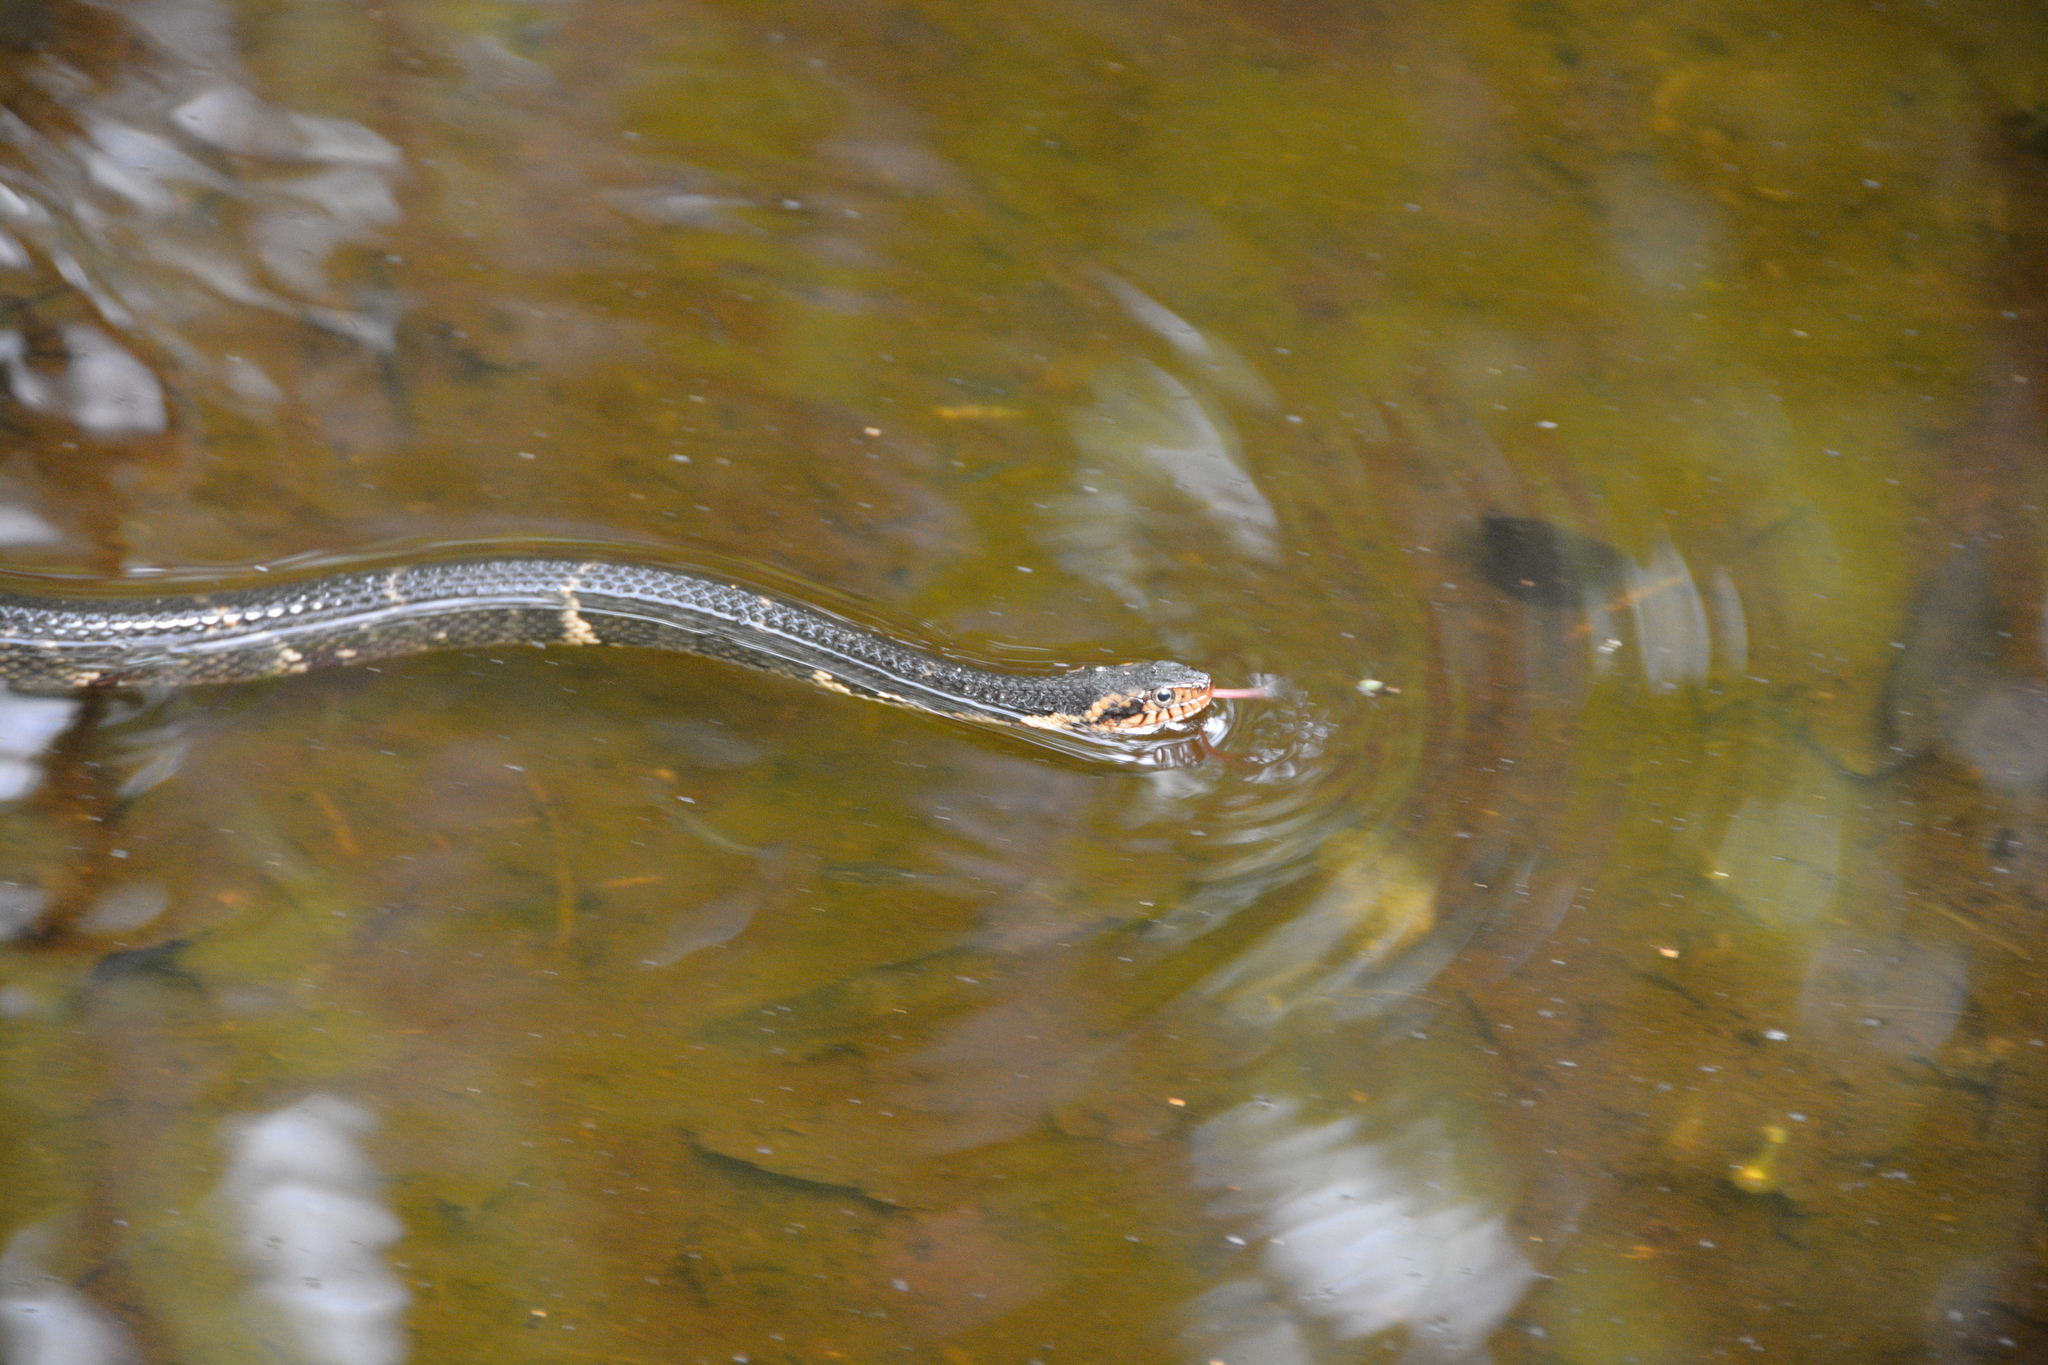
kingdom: Animalia
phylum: Chordata
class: Squamata
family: Colubridae
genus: Nerodia
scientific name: Nerodia fasciata
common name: Southern water snake
